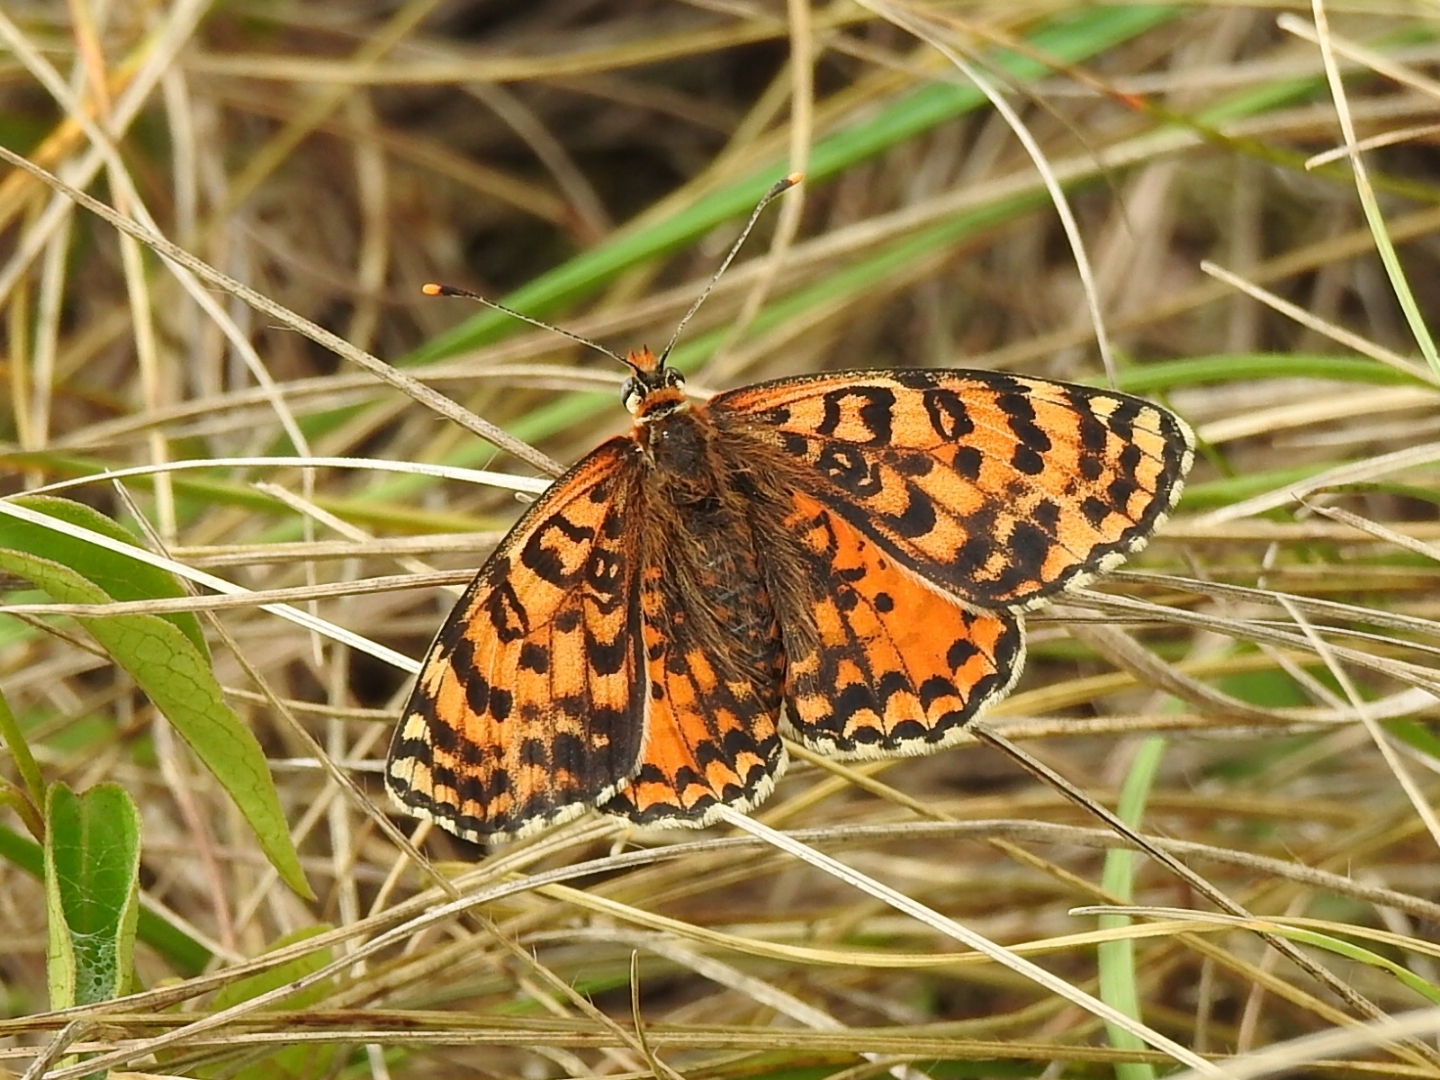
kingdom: Animalia
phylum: Arthropoda
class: Insecta
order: Lepidoptera
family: Nymphalidae
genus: Melitaea
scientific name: Melitaea didyma
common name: Spotted fritillary
